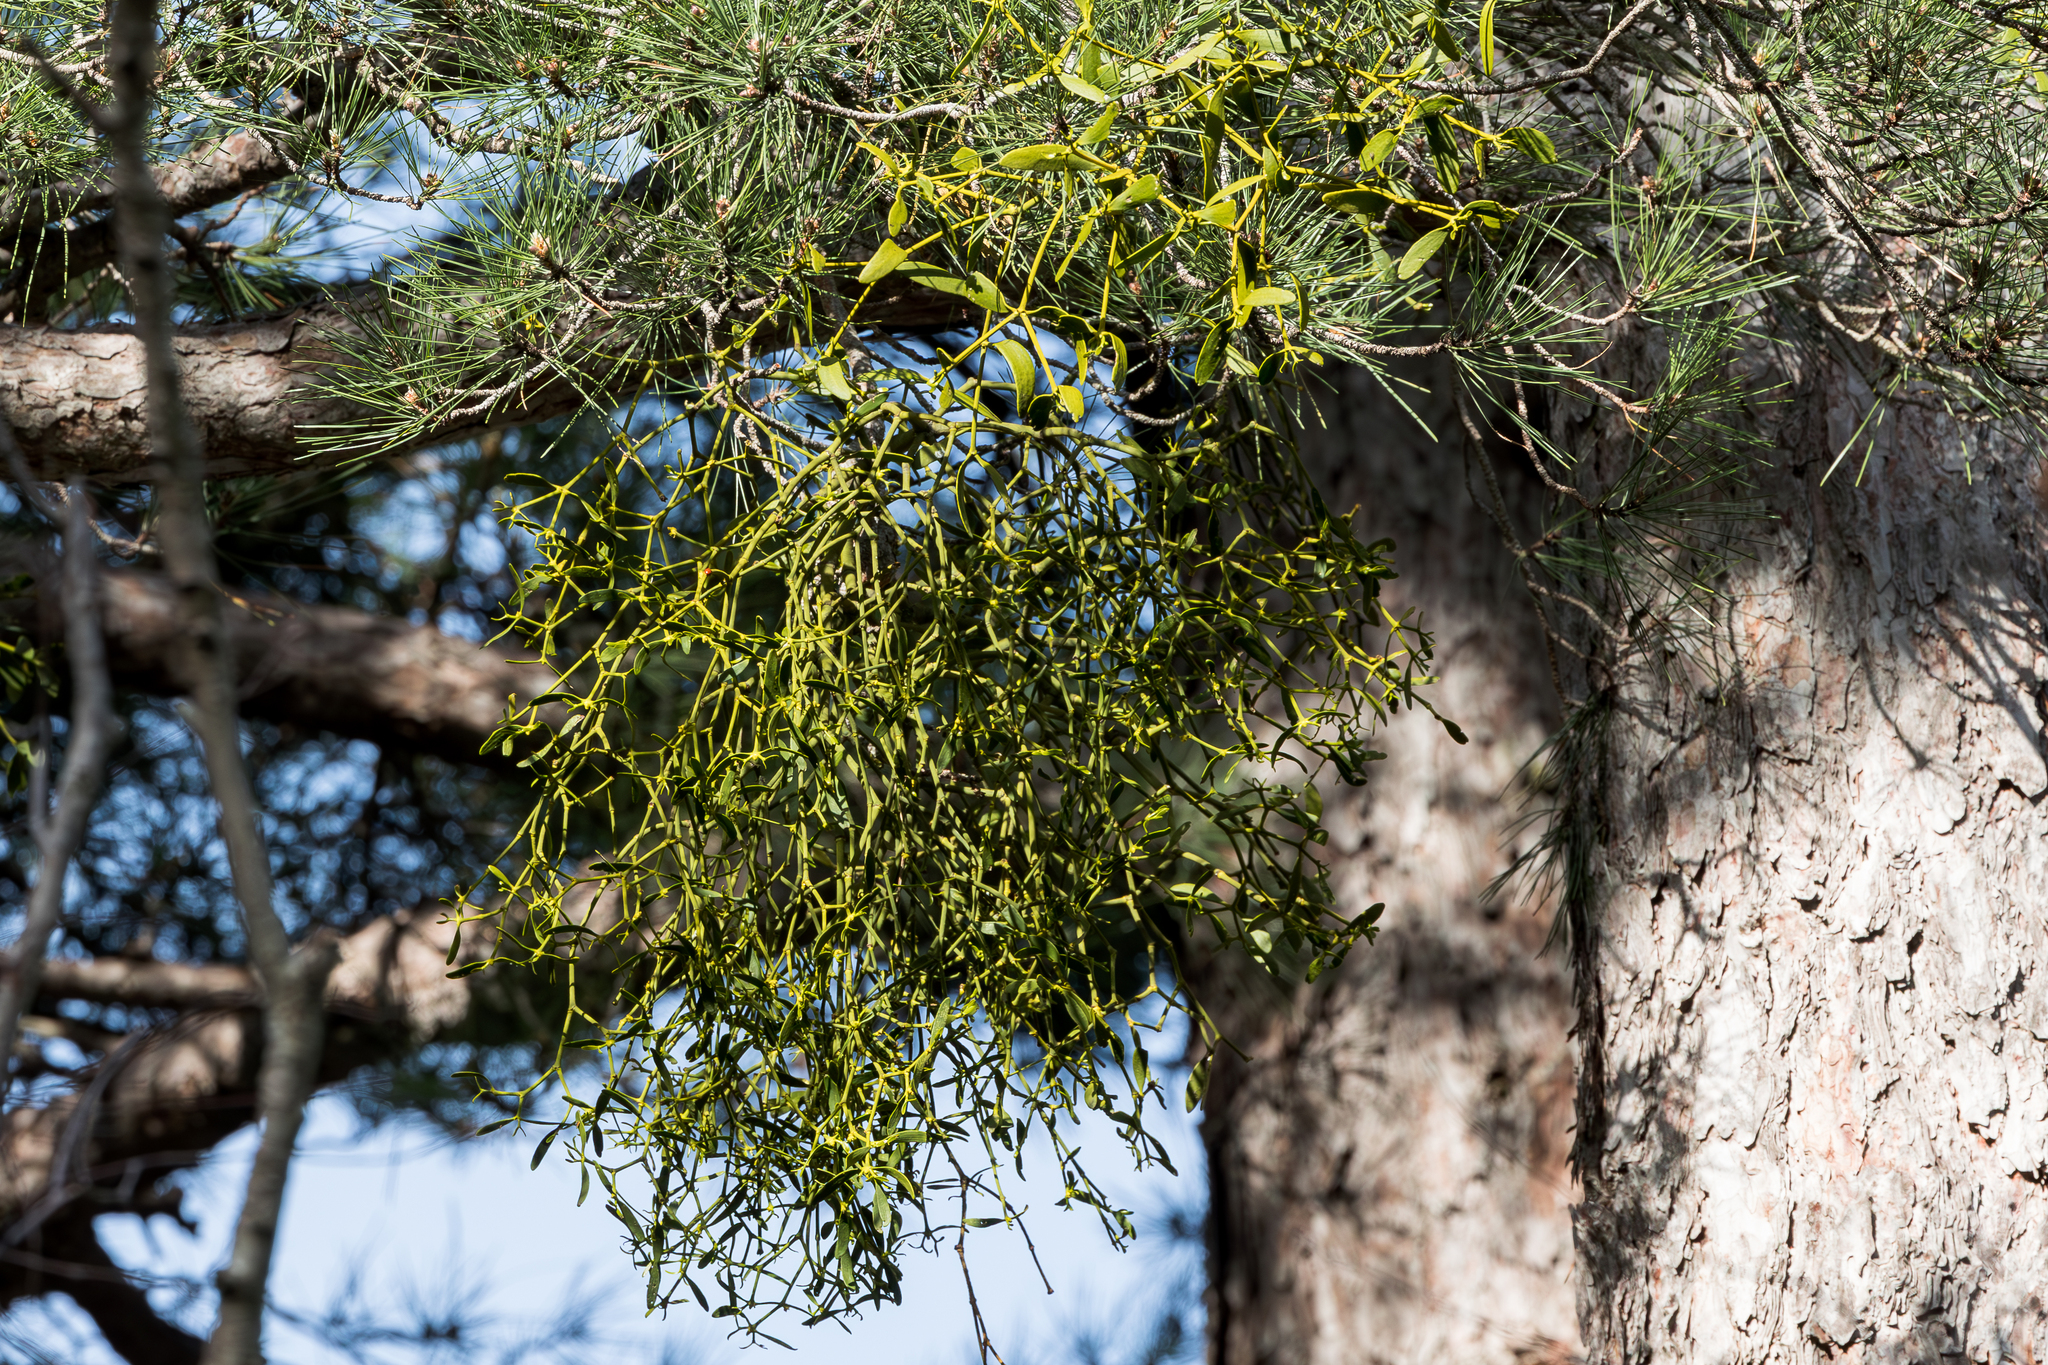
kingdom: Plantae
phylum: Tracheophyta
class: Magnoliopsida
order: Santalales
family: Viscaceae
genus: Viscum
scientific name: Viscum laxum
